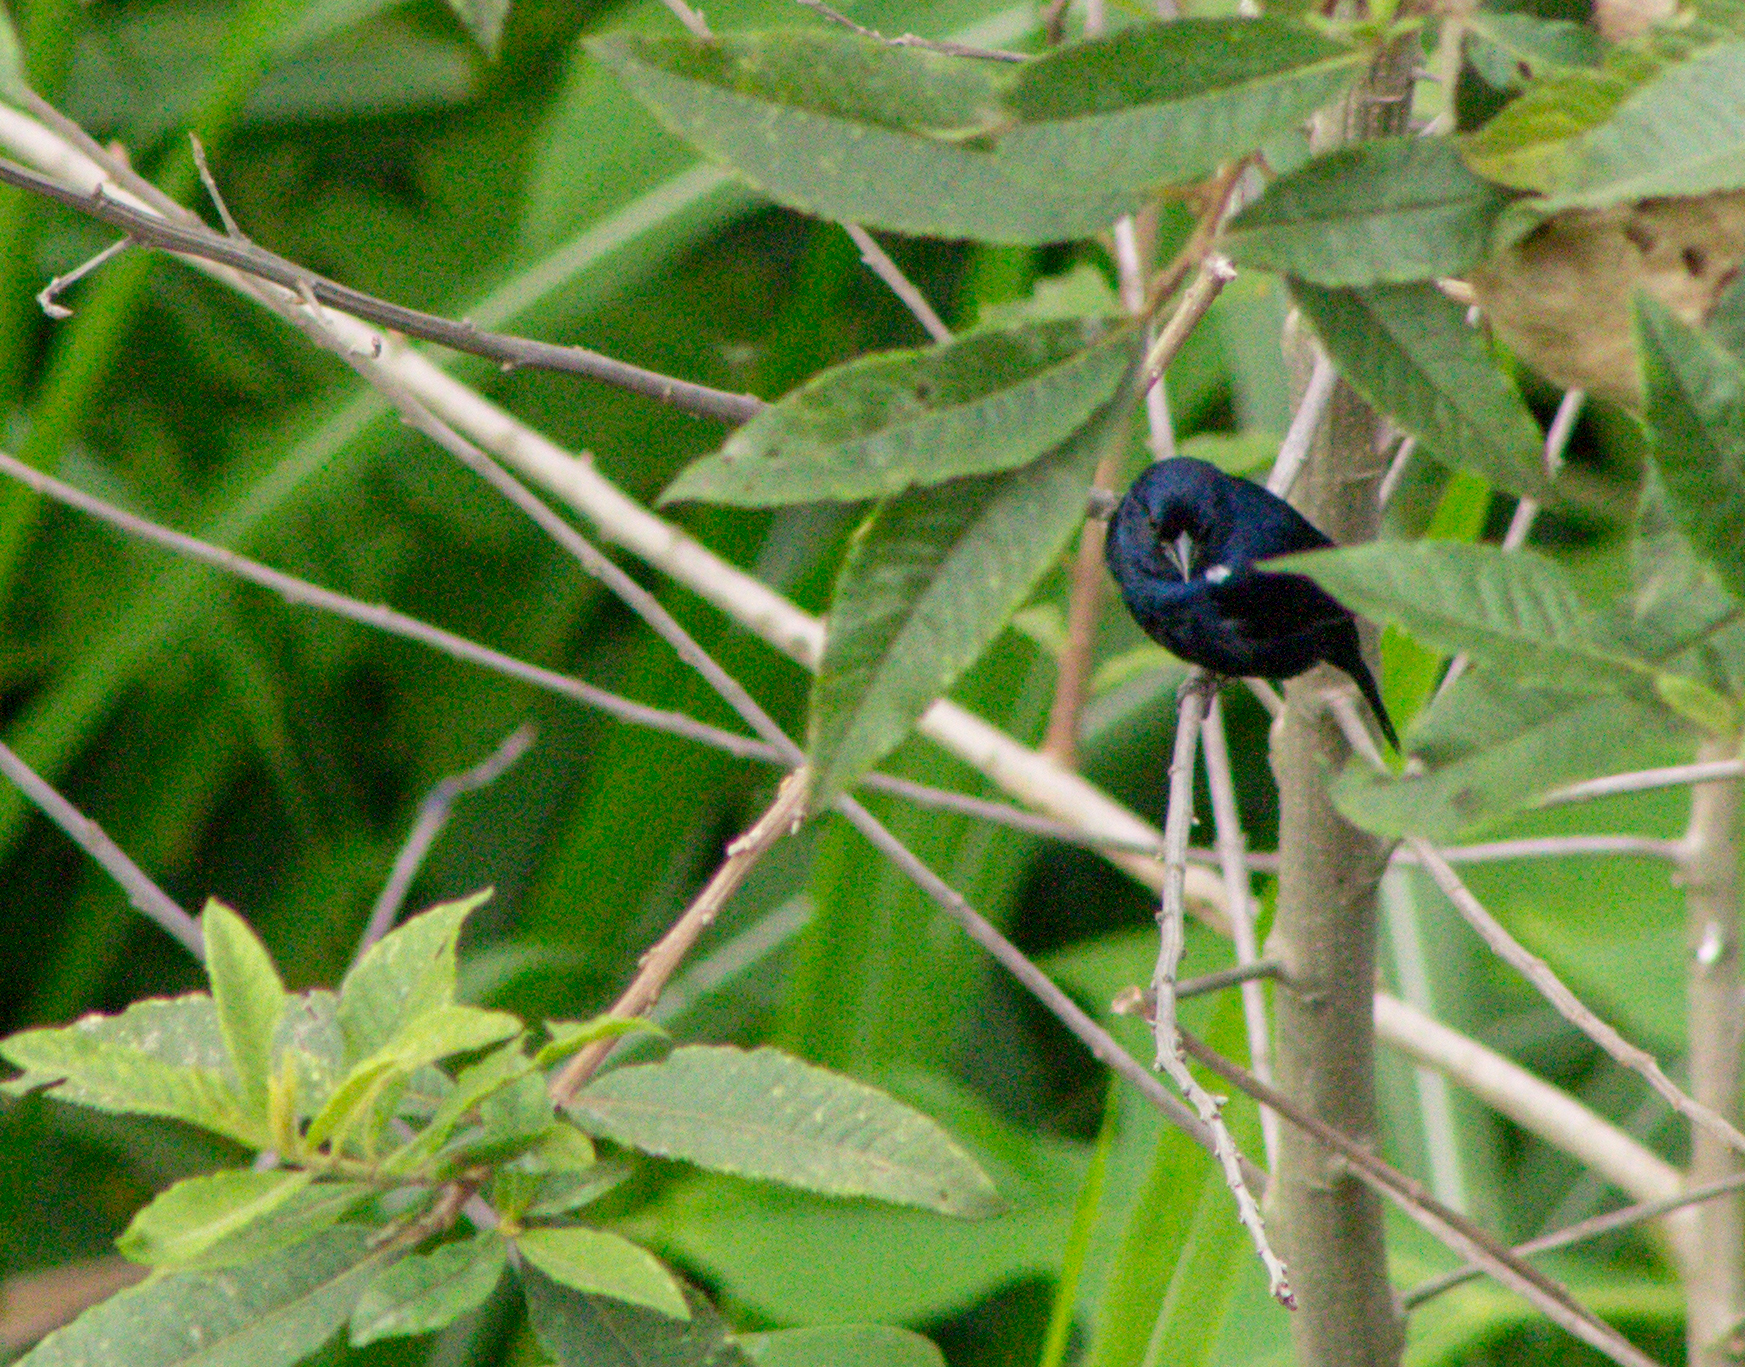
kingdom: Animalia
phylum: Chordata
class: Aves
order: Passeriformes
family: Thraupidae
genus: Volatinia
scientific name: Volatinia jacarina
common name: Blue-black grassquit
